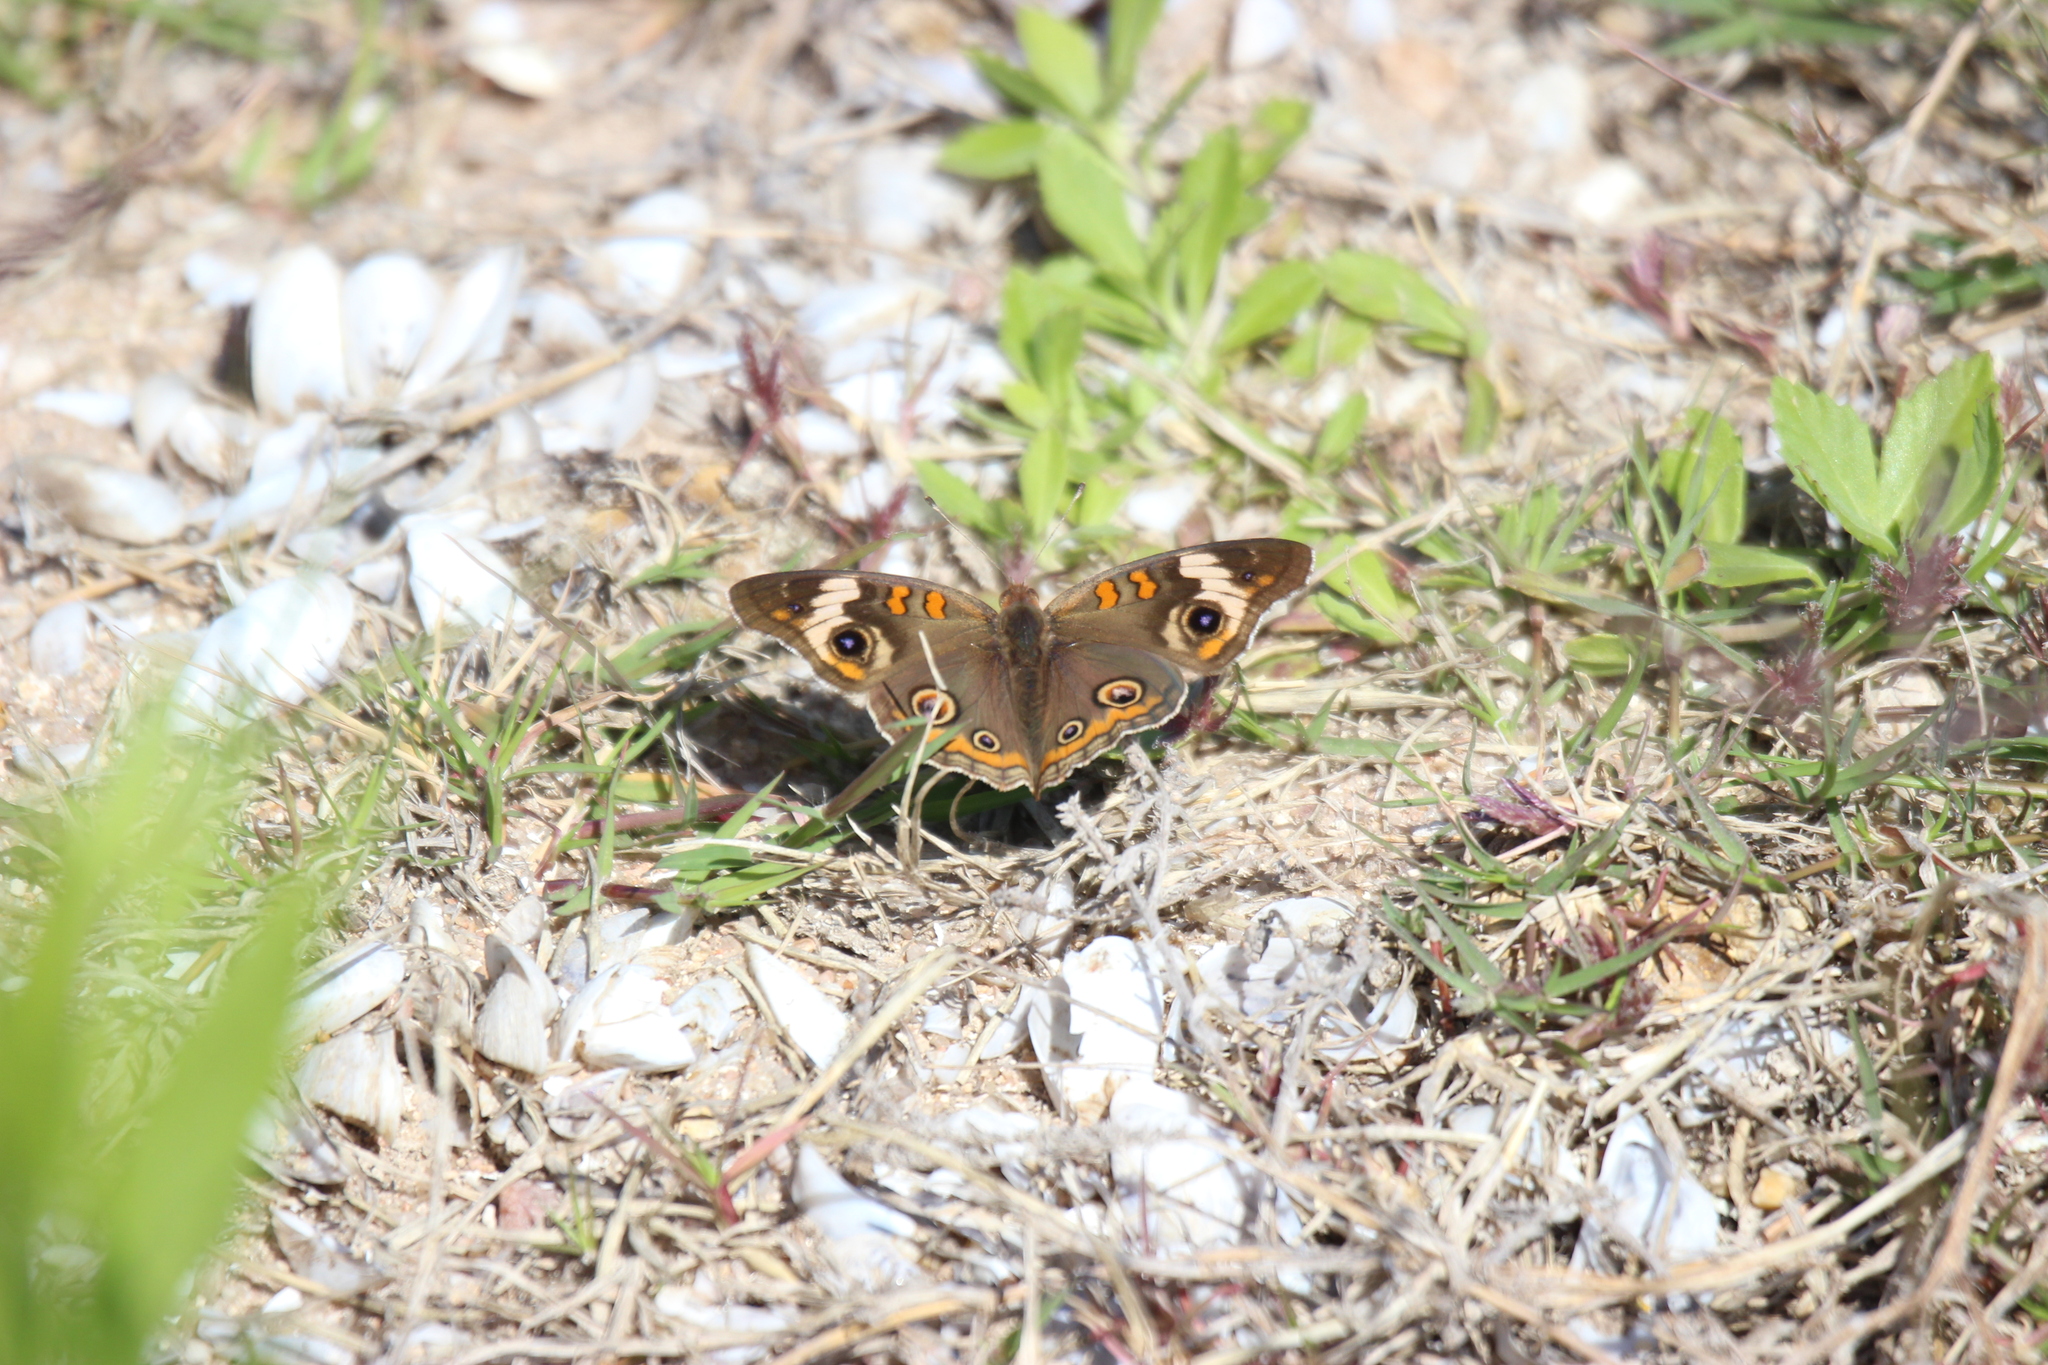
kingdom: Animalia
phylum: Arthropoda
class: Insecta
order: Lepidoptera
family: Nymphalidae
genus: Junonia
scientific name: Junonia coenia
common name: Common buckeye
